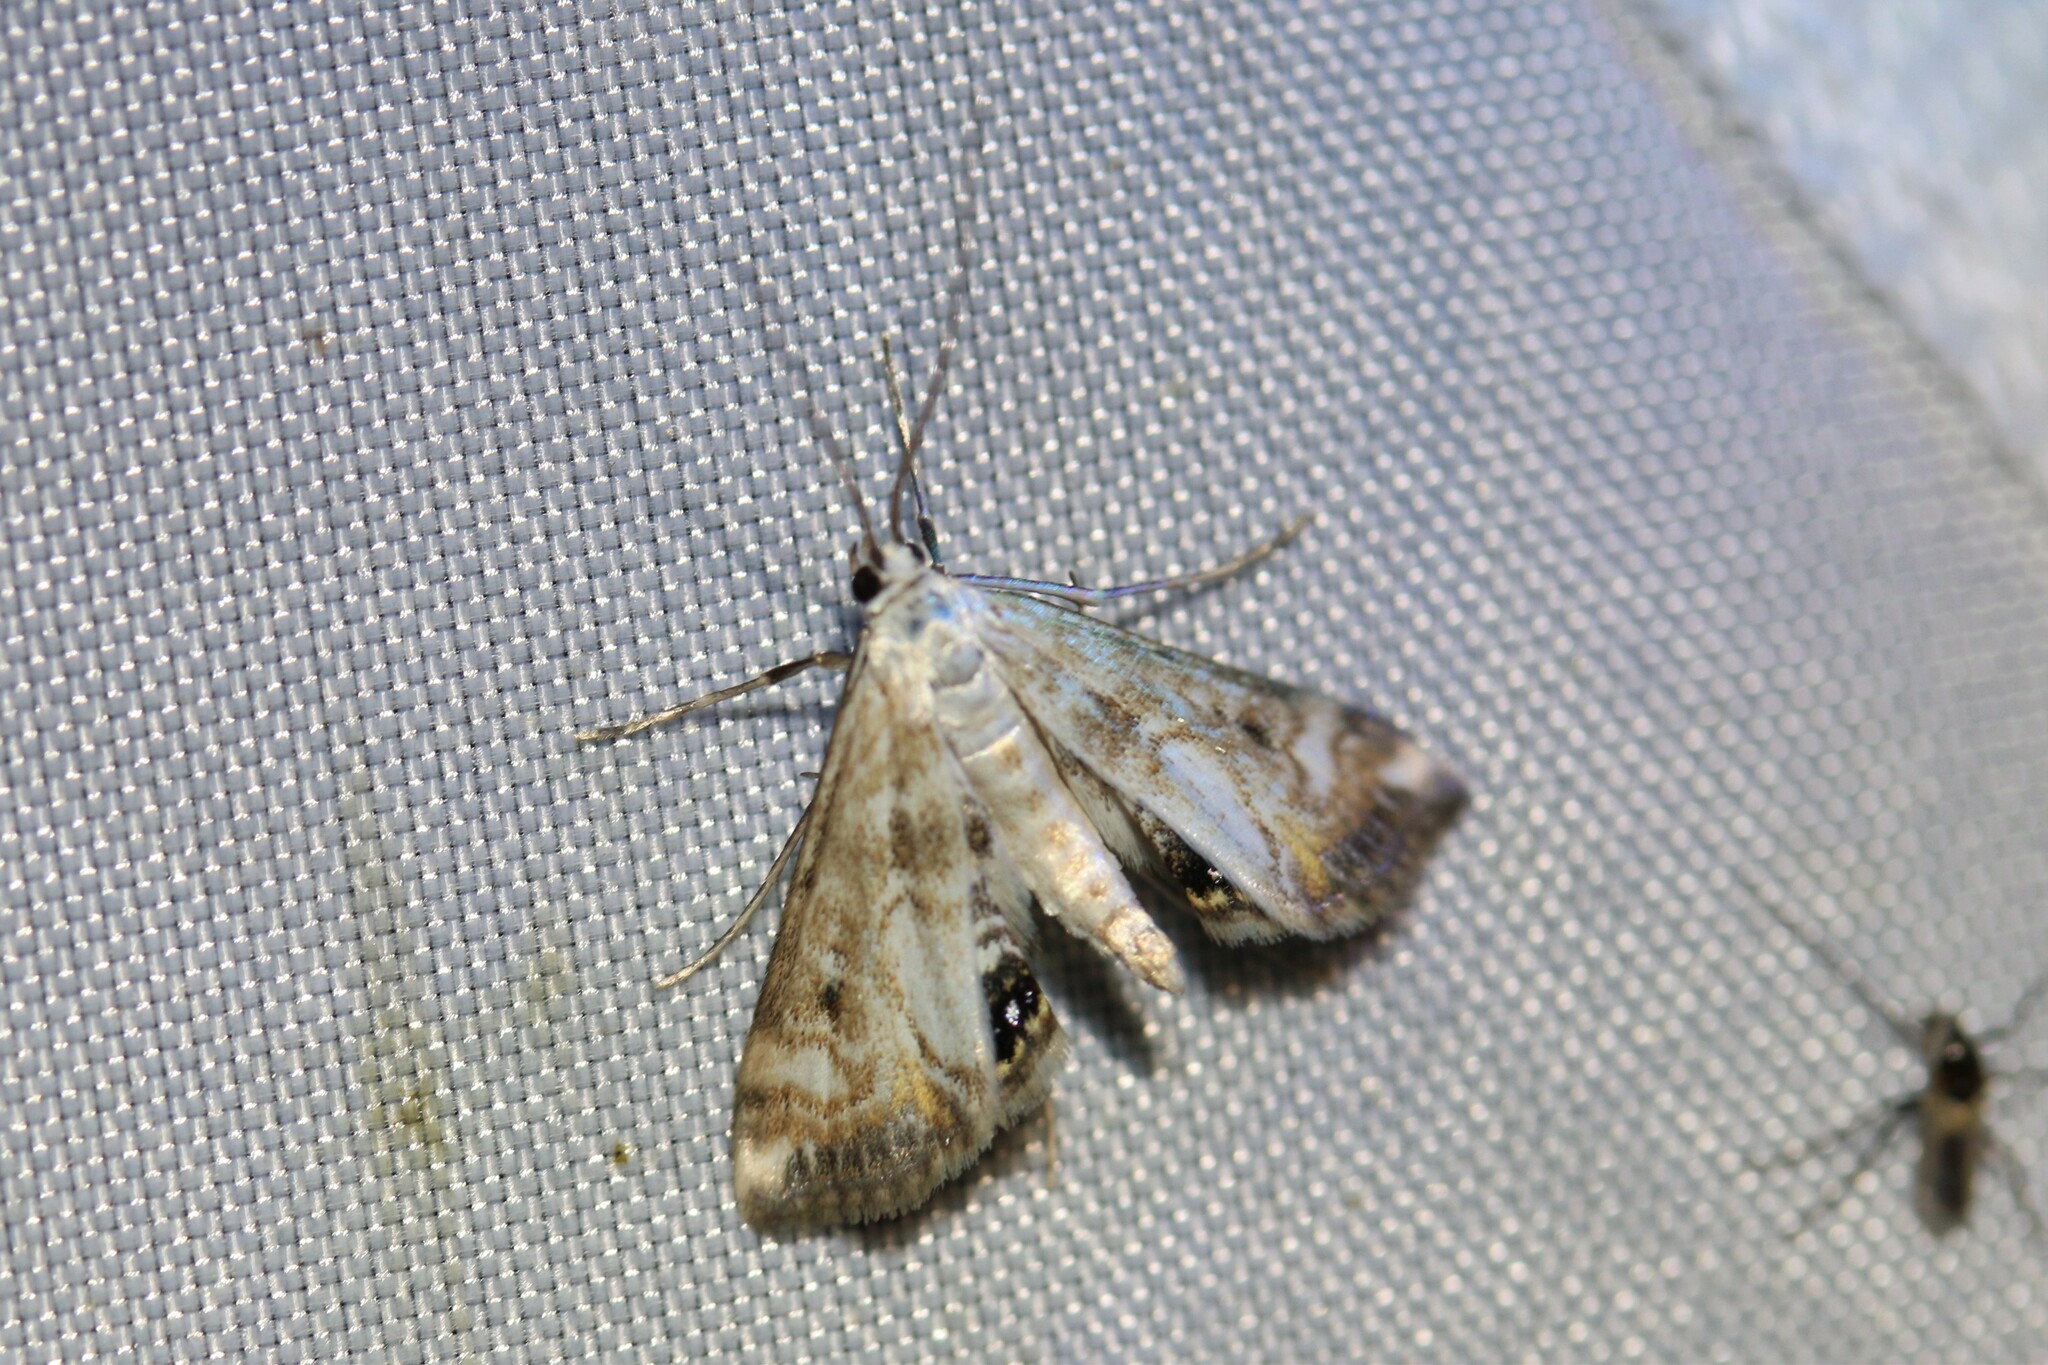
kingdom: Animalia
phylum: Arthropoda
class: Insecta
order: Lepidoptera
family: Crambidae
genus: Cataclysta
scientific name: Cataclysta lemnata
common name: Small china-mark
